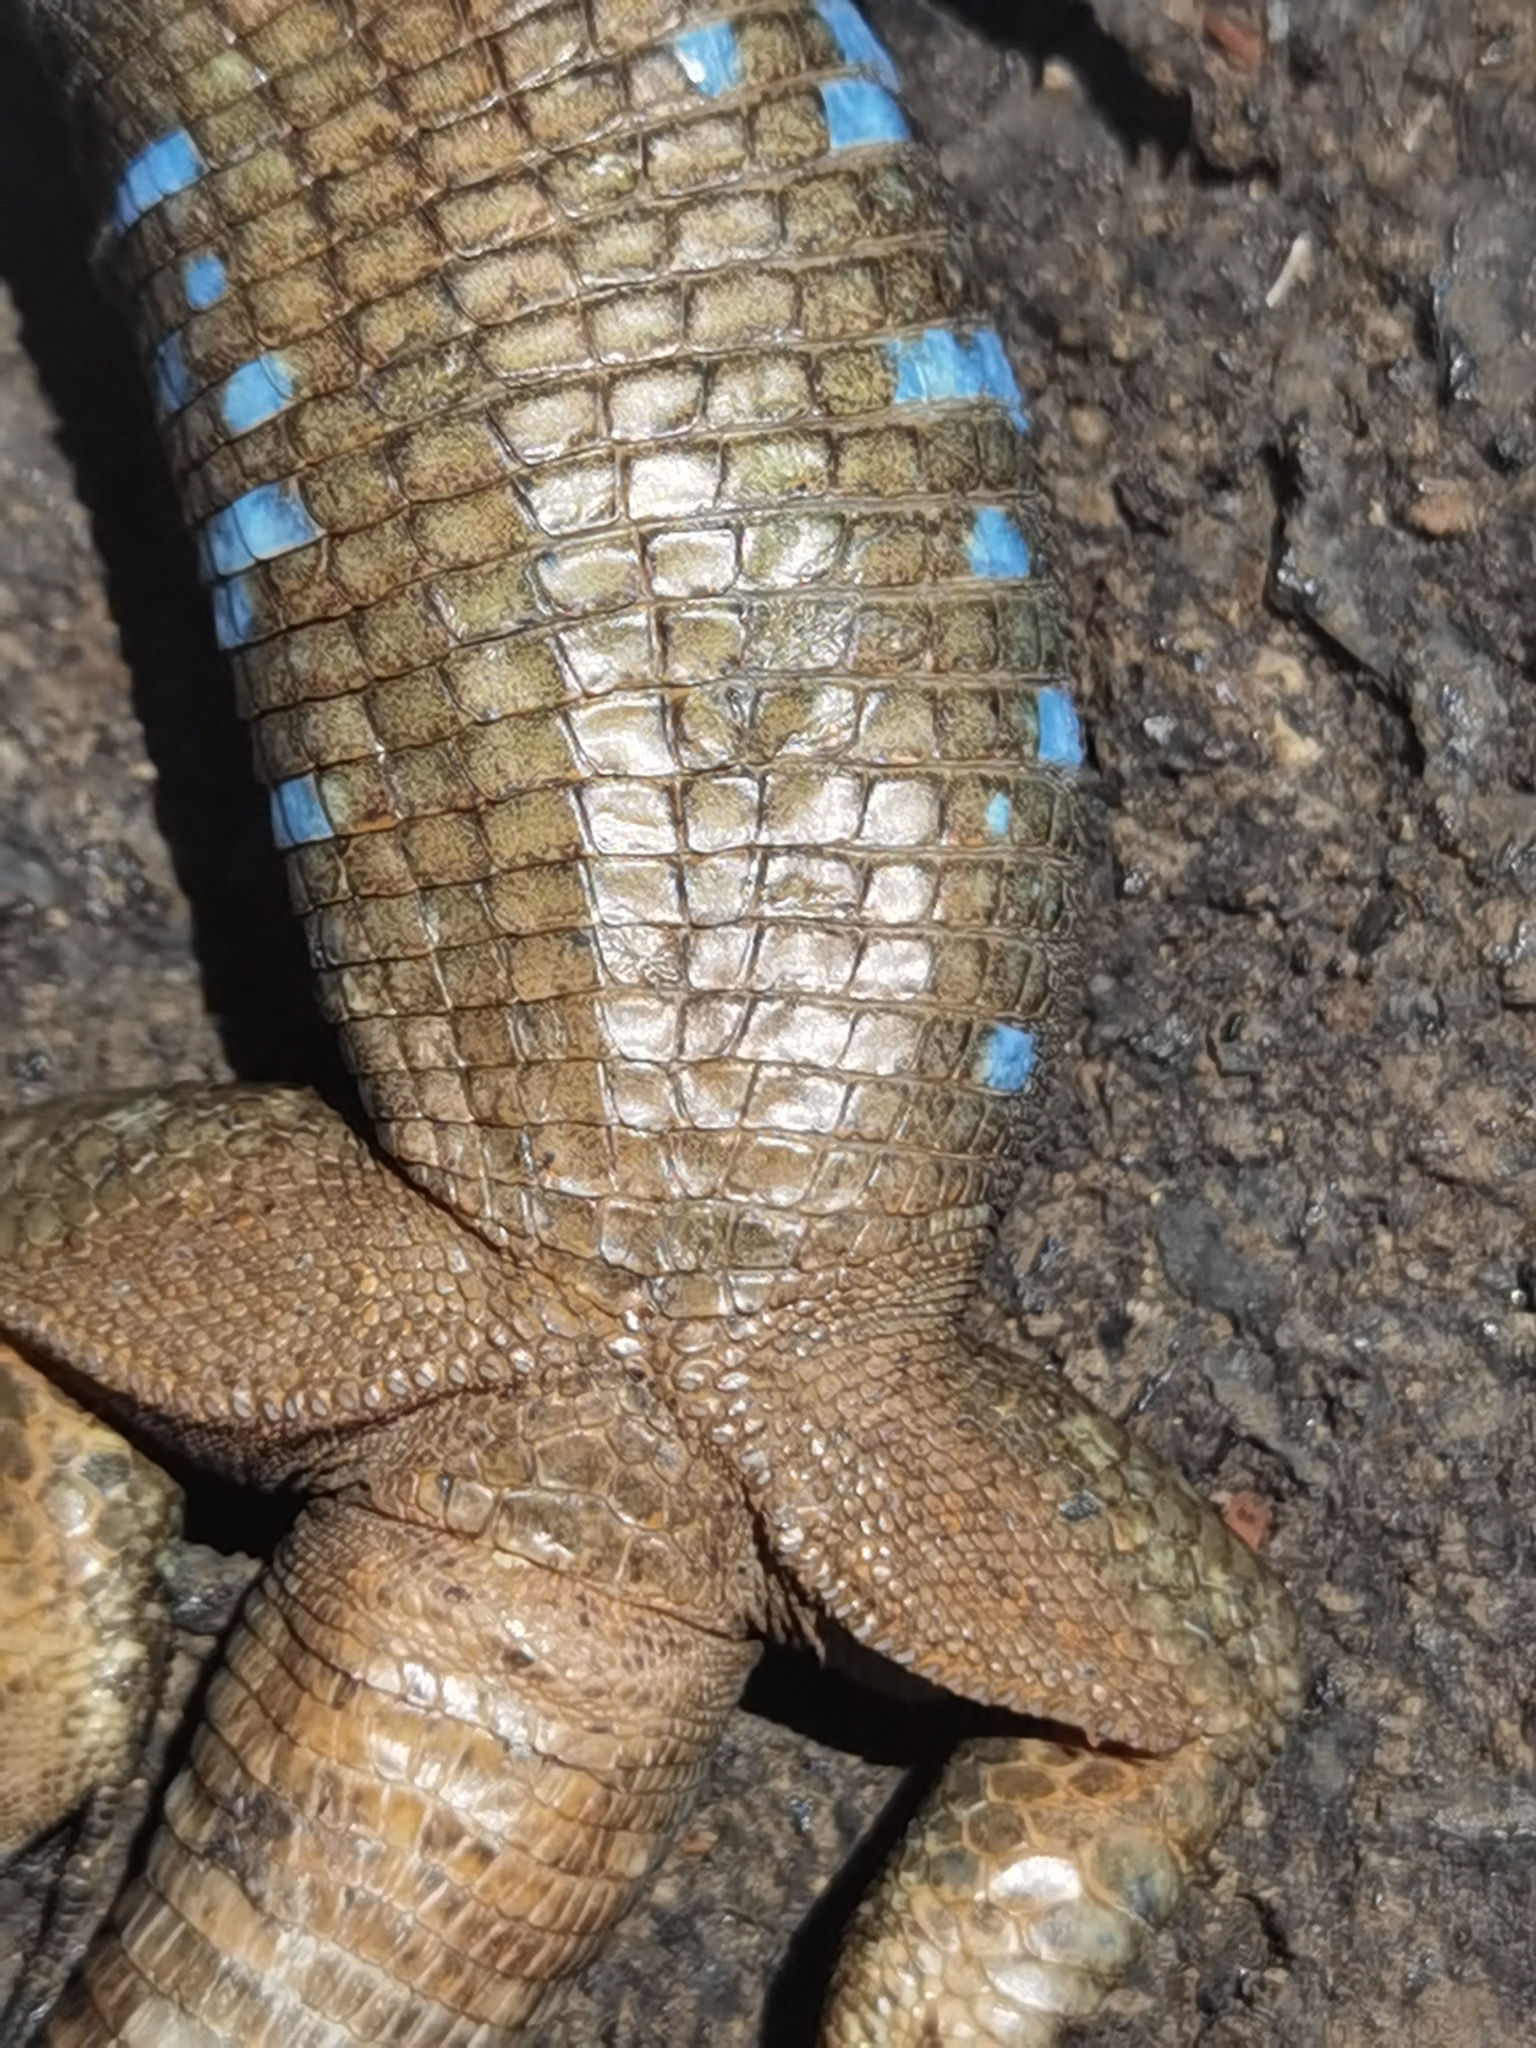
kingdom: Animalia
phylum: Chordata
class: Squamata
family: Lacertidae
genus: Gallotia
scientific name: Gallotia galloti
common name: Gallot's lizard
